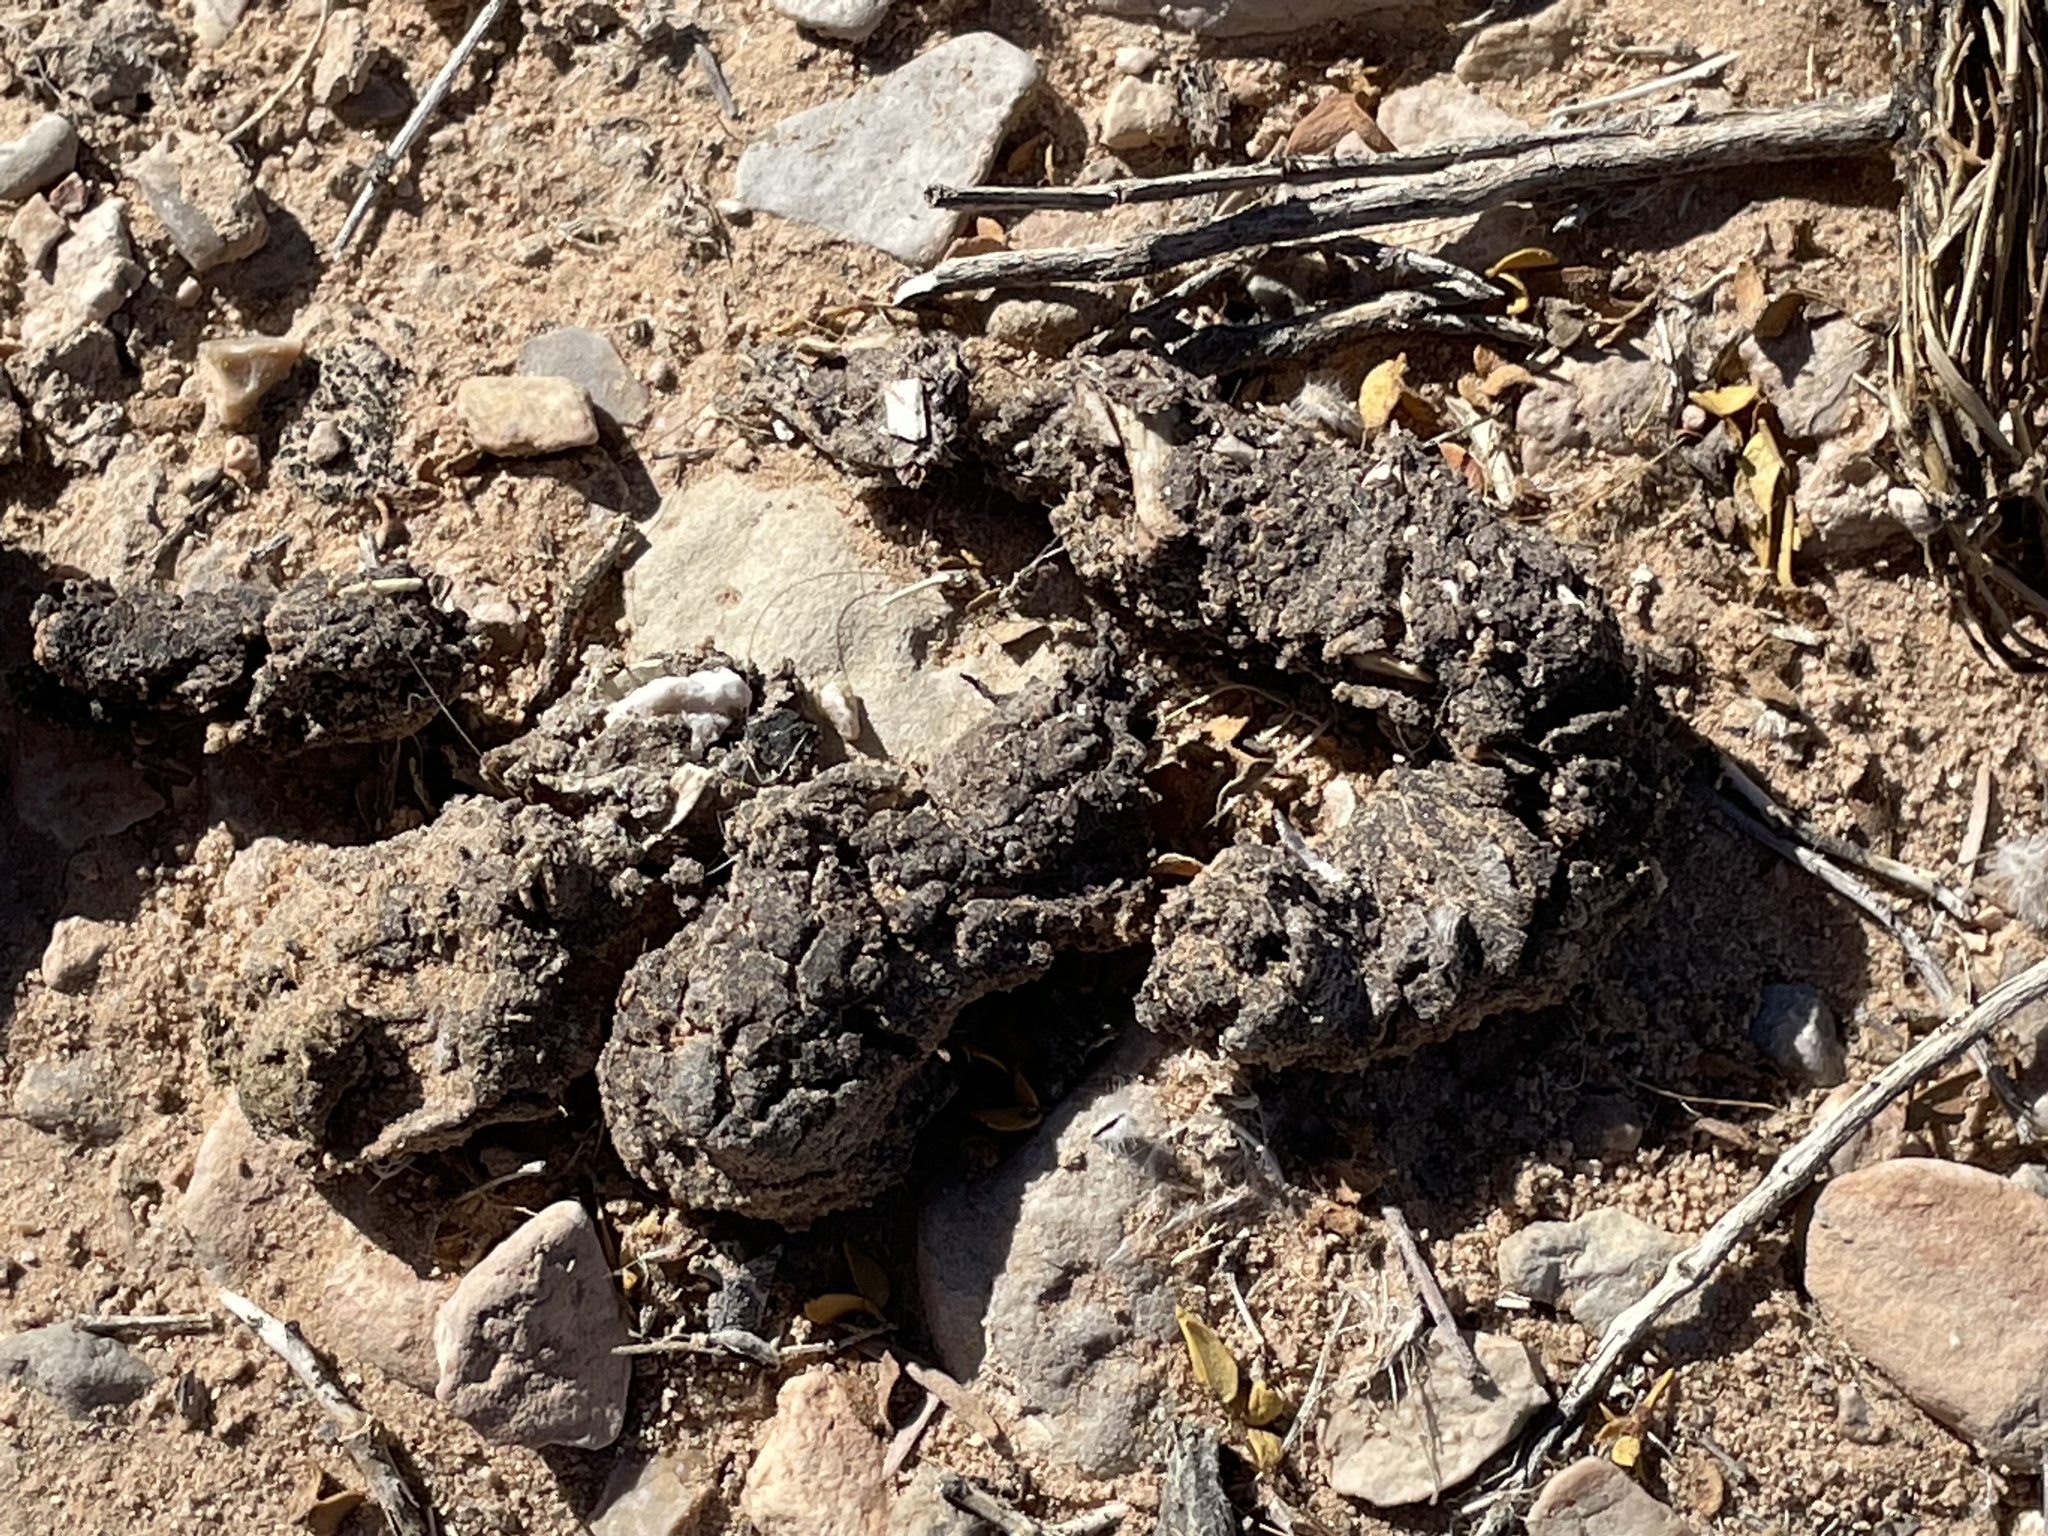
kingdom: Animalia
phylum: Chordata
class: Mammalia
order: Carnivora
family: Canidae
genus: Canis
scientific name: Canis latrans
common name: Coyote
